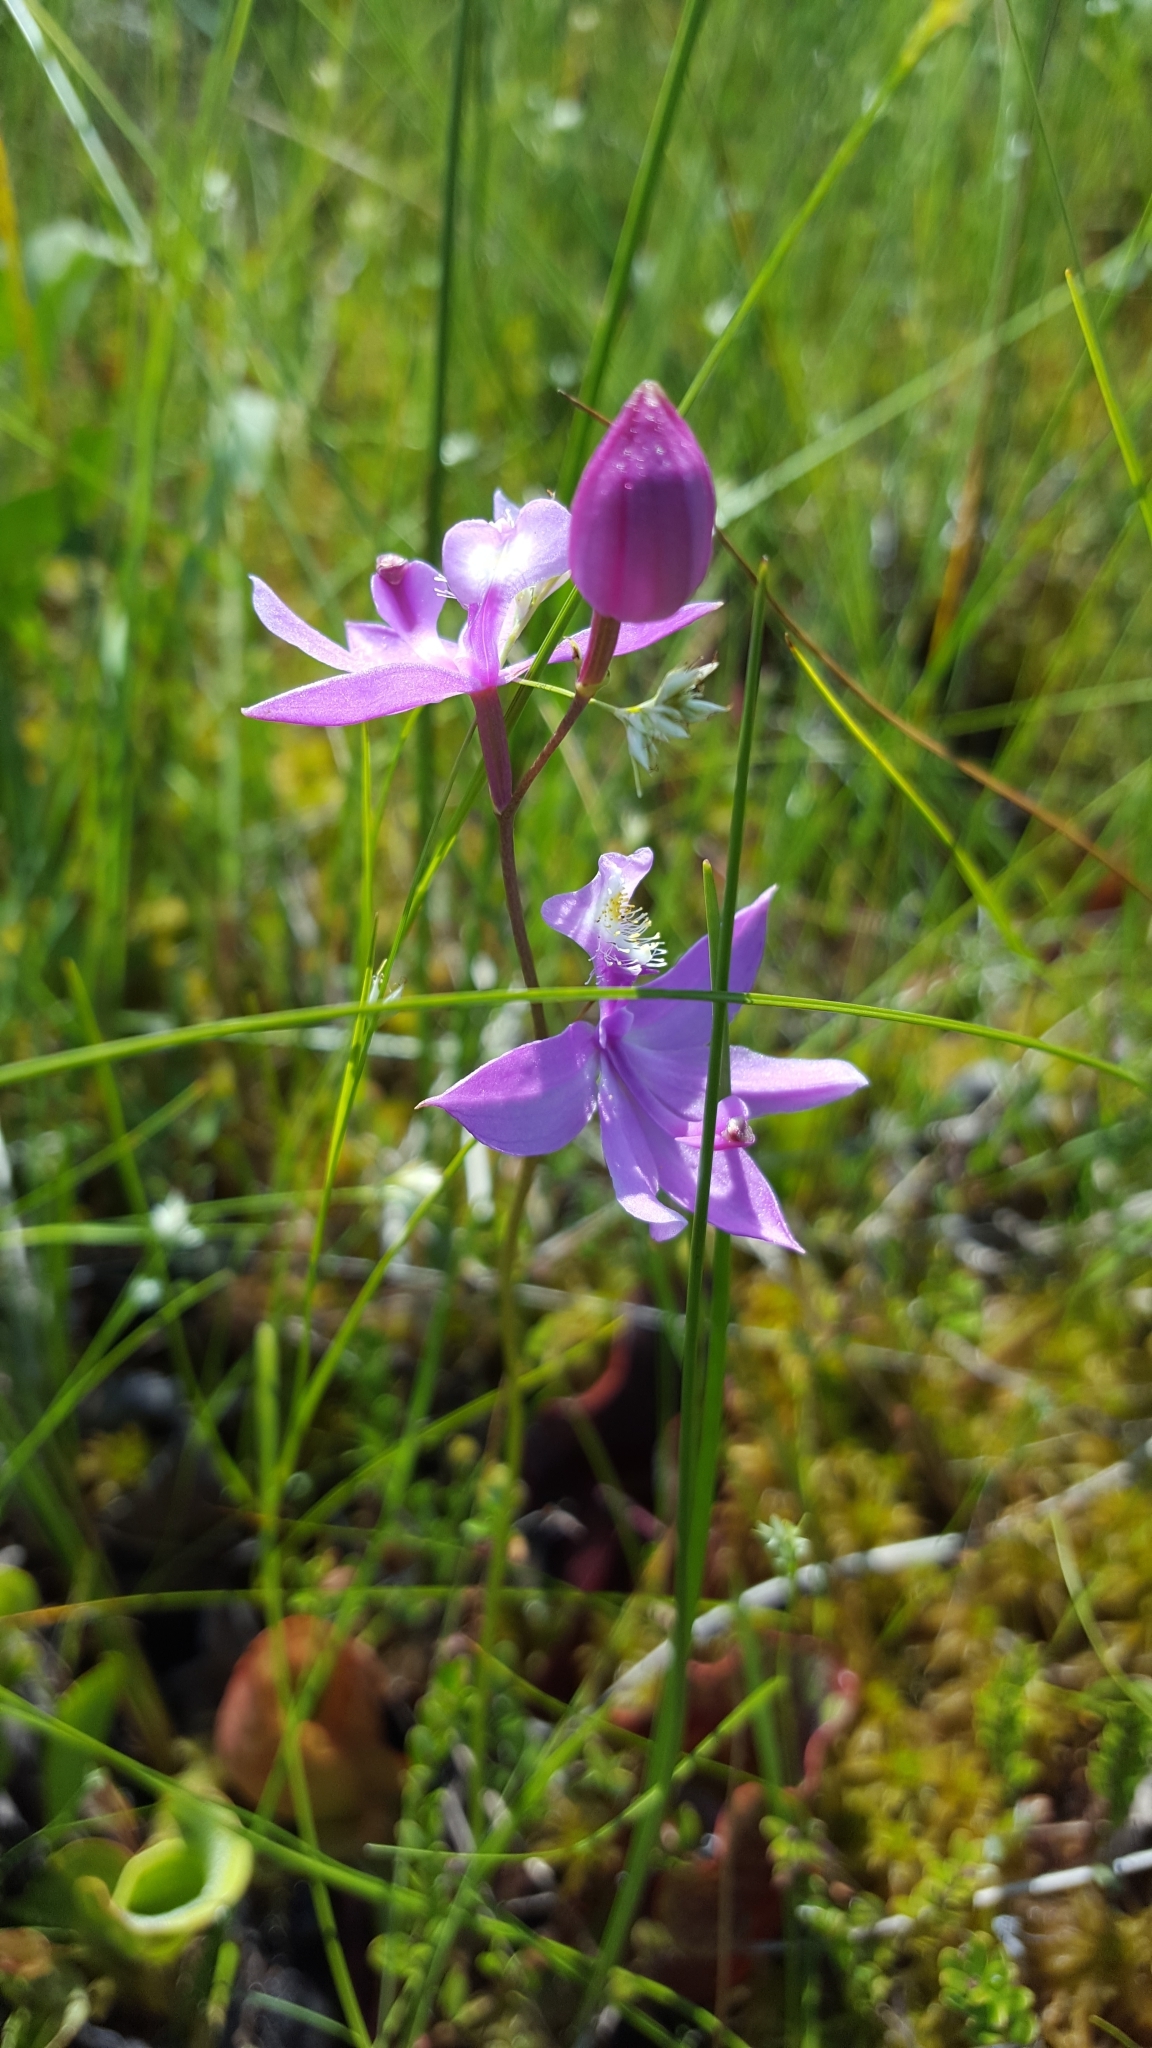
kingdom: Plantae
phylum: Tracheophyta
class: Liliopsida
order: Asparagales
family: Orchidaceae
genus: Calopogon
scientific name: Calopogon tuberosus
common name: Grass-pink
